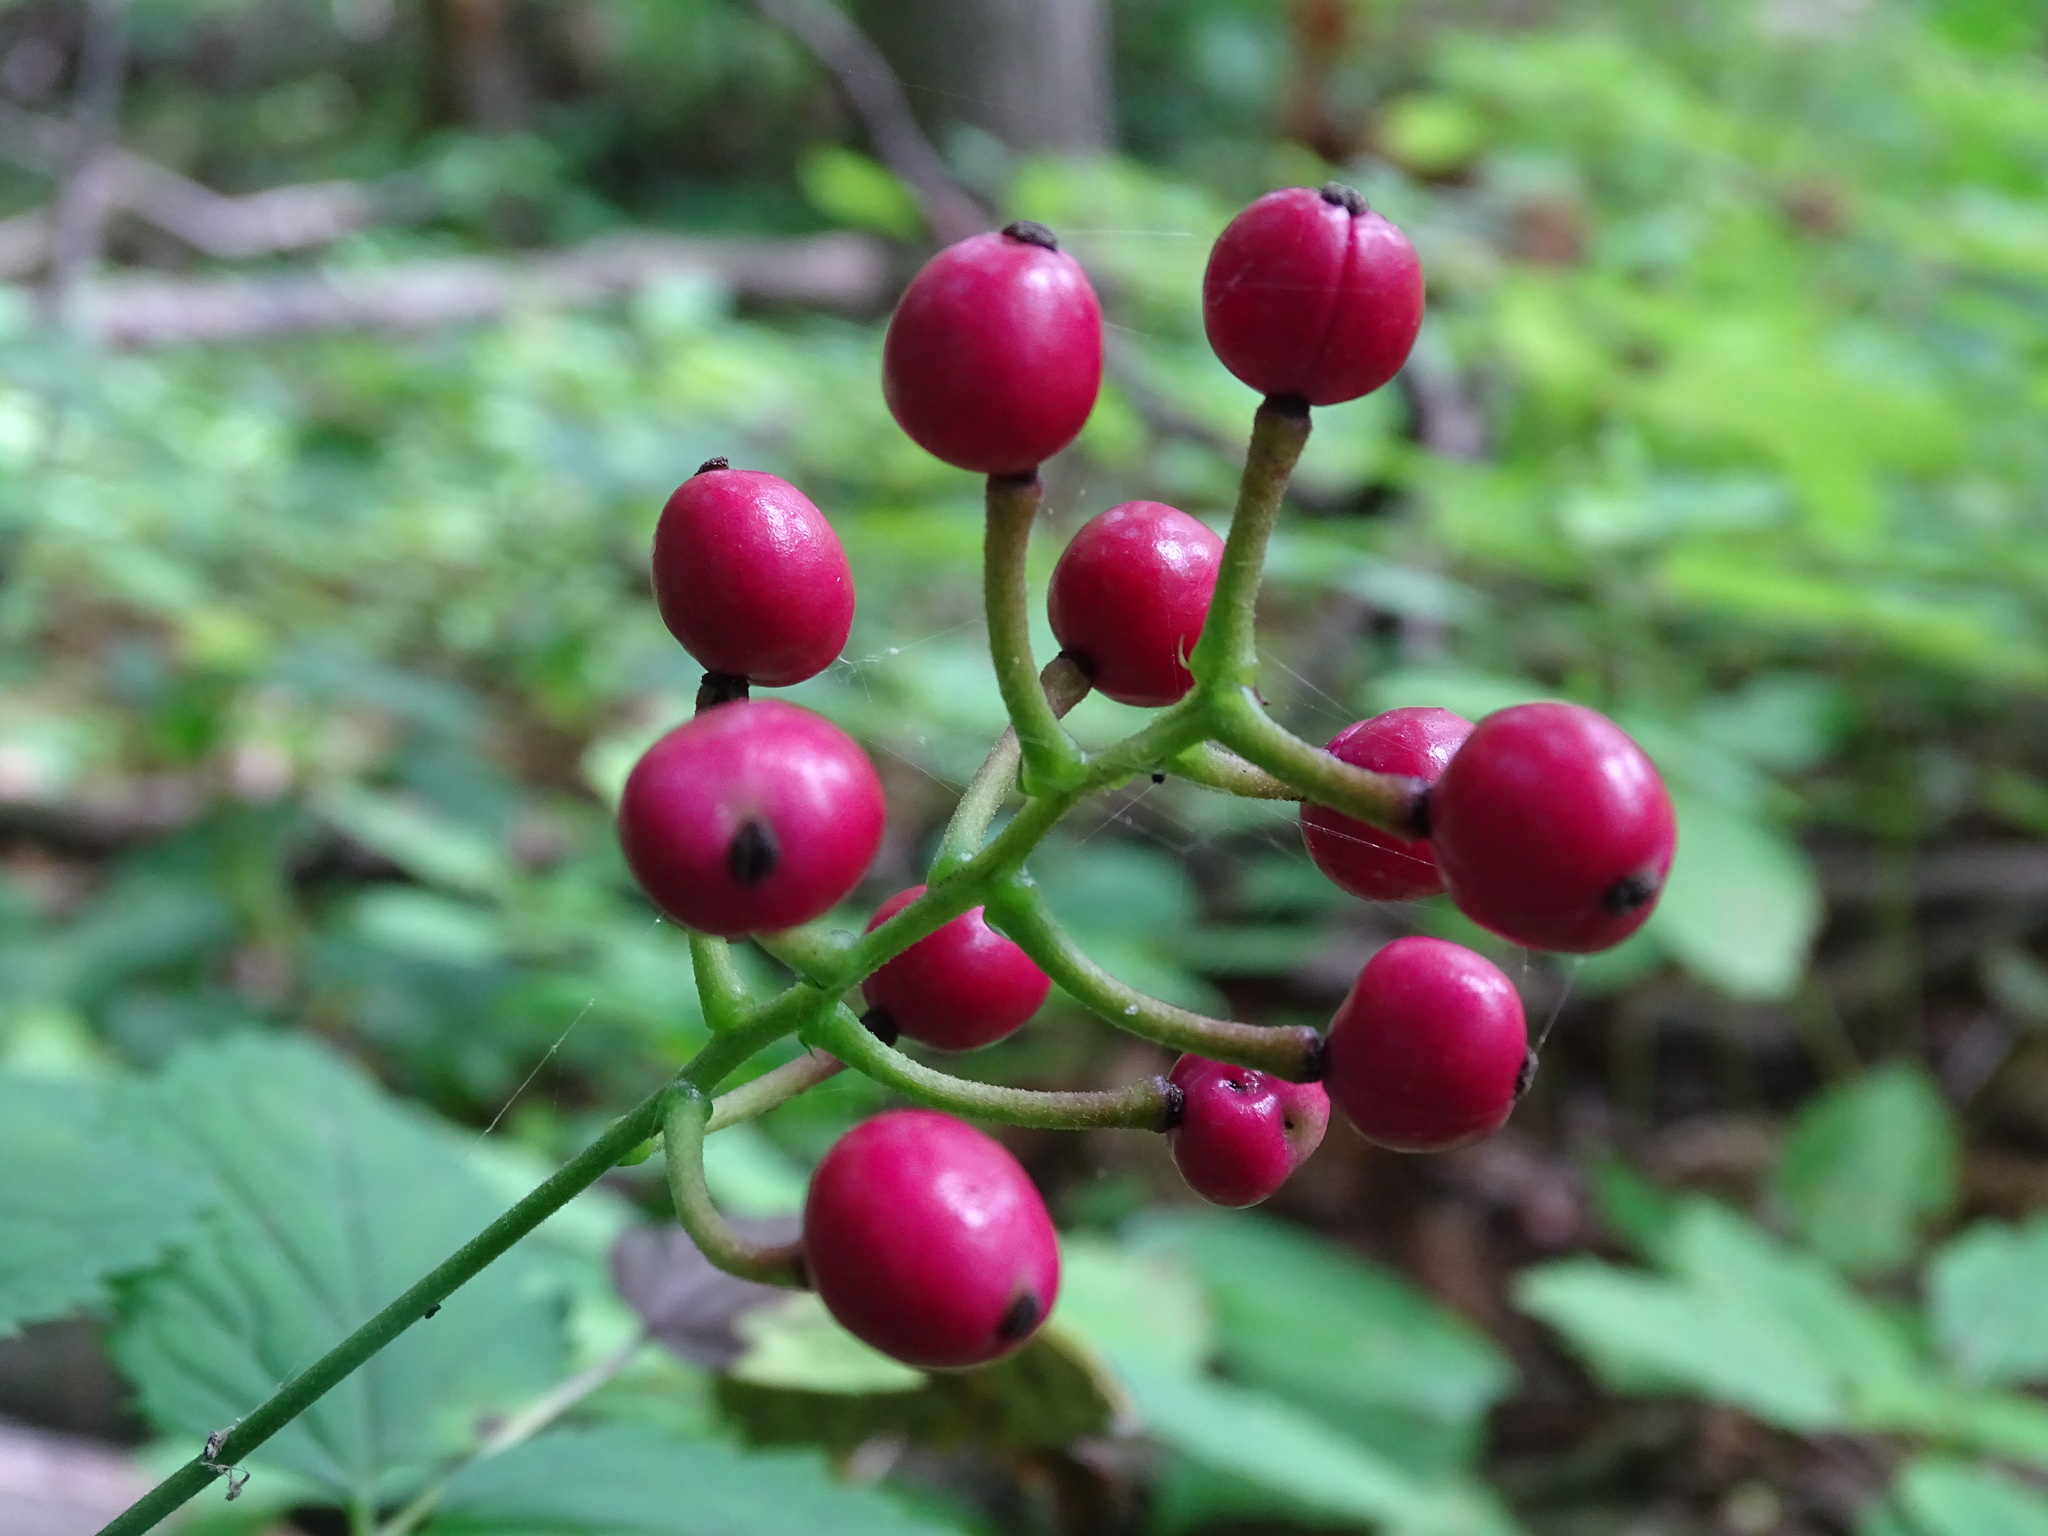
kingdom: Plantae
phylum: Tracheophyta
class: Magnoliopsida
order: Ranunculales
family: Ranunculaceae
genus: Actaea
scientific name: Actaea ludovici
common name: Ludovic's baneberry
